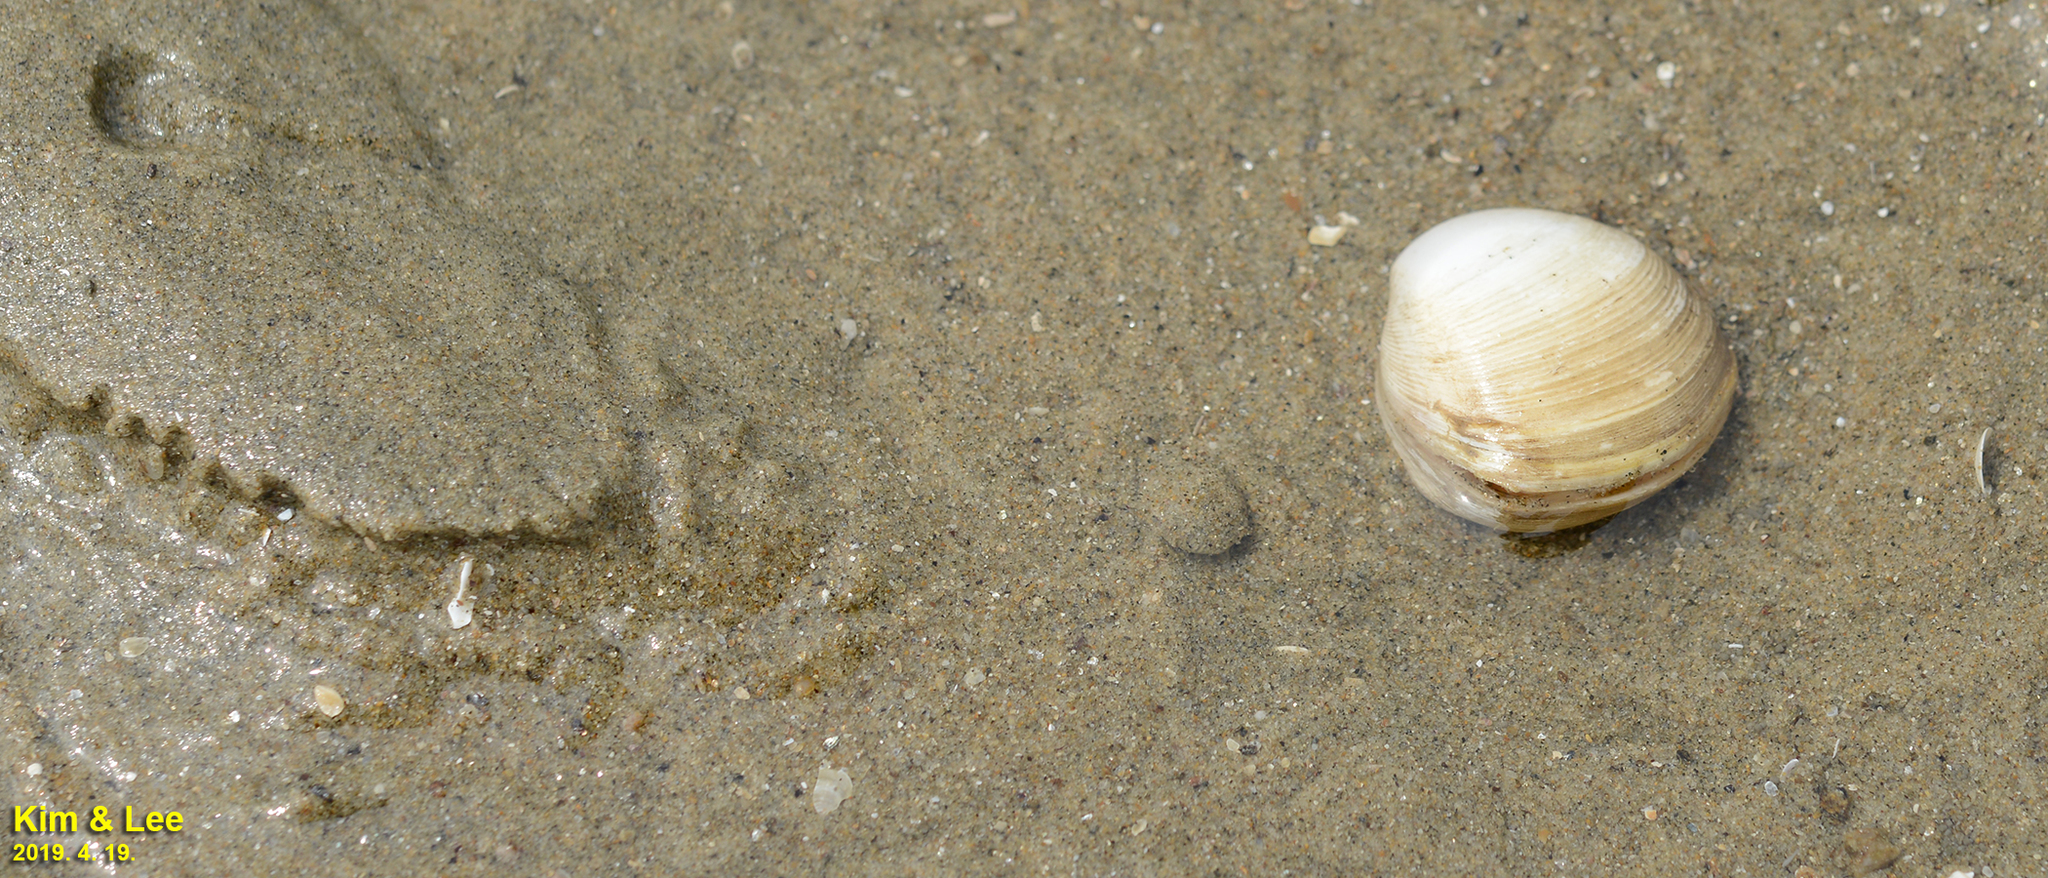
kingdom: Animalia
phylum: Mollusca
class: Bivalvia
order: Venerida
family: Mactridae
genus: Mactra
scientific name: Mactra quadrangularis
